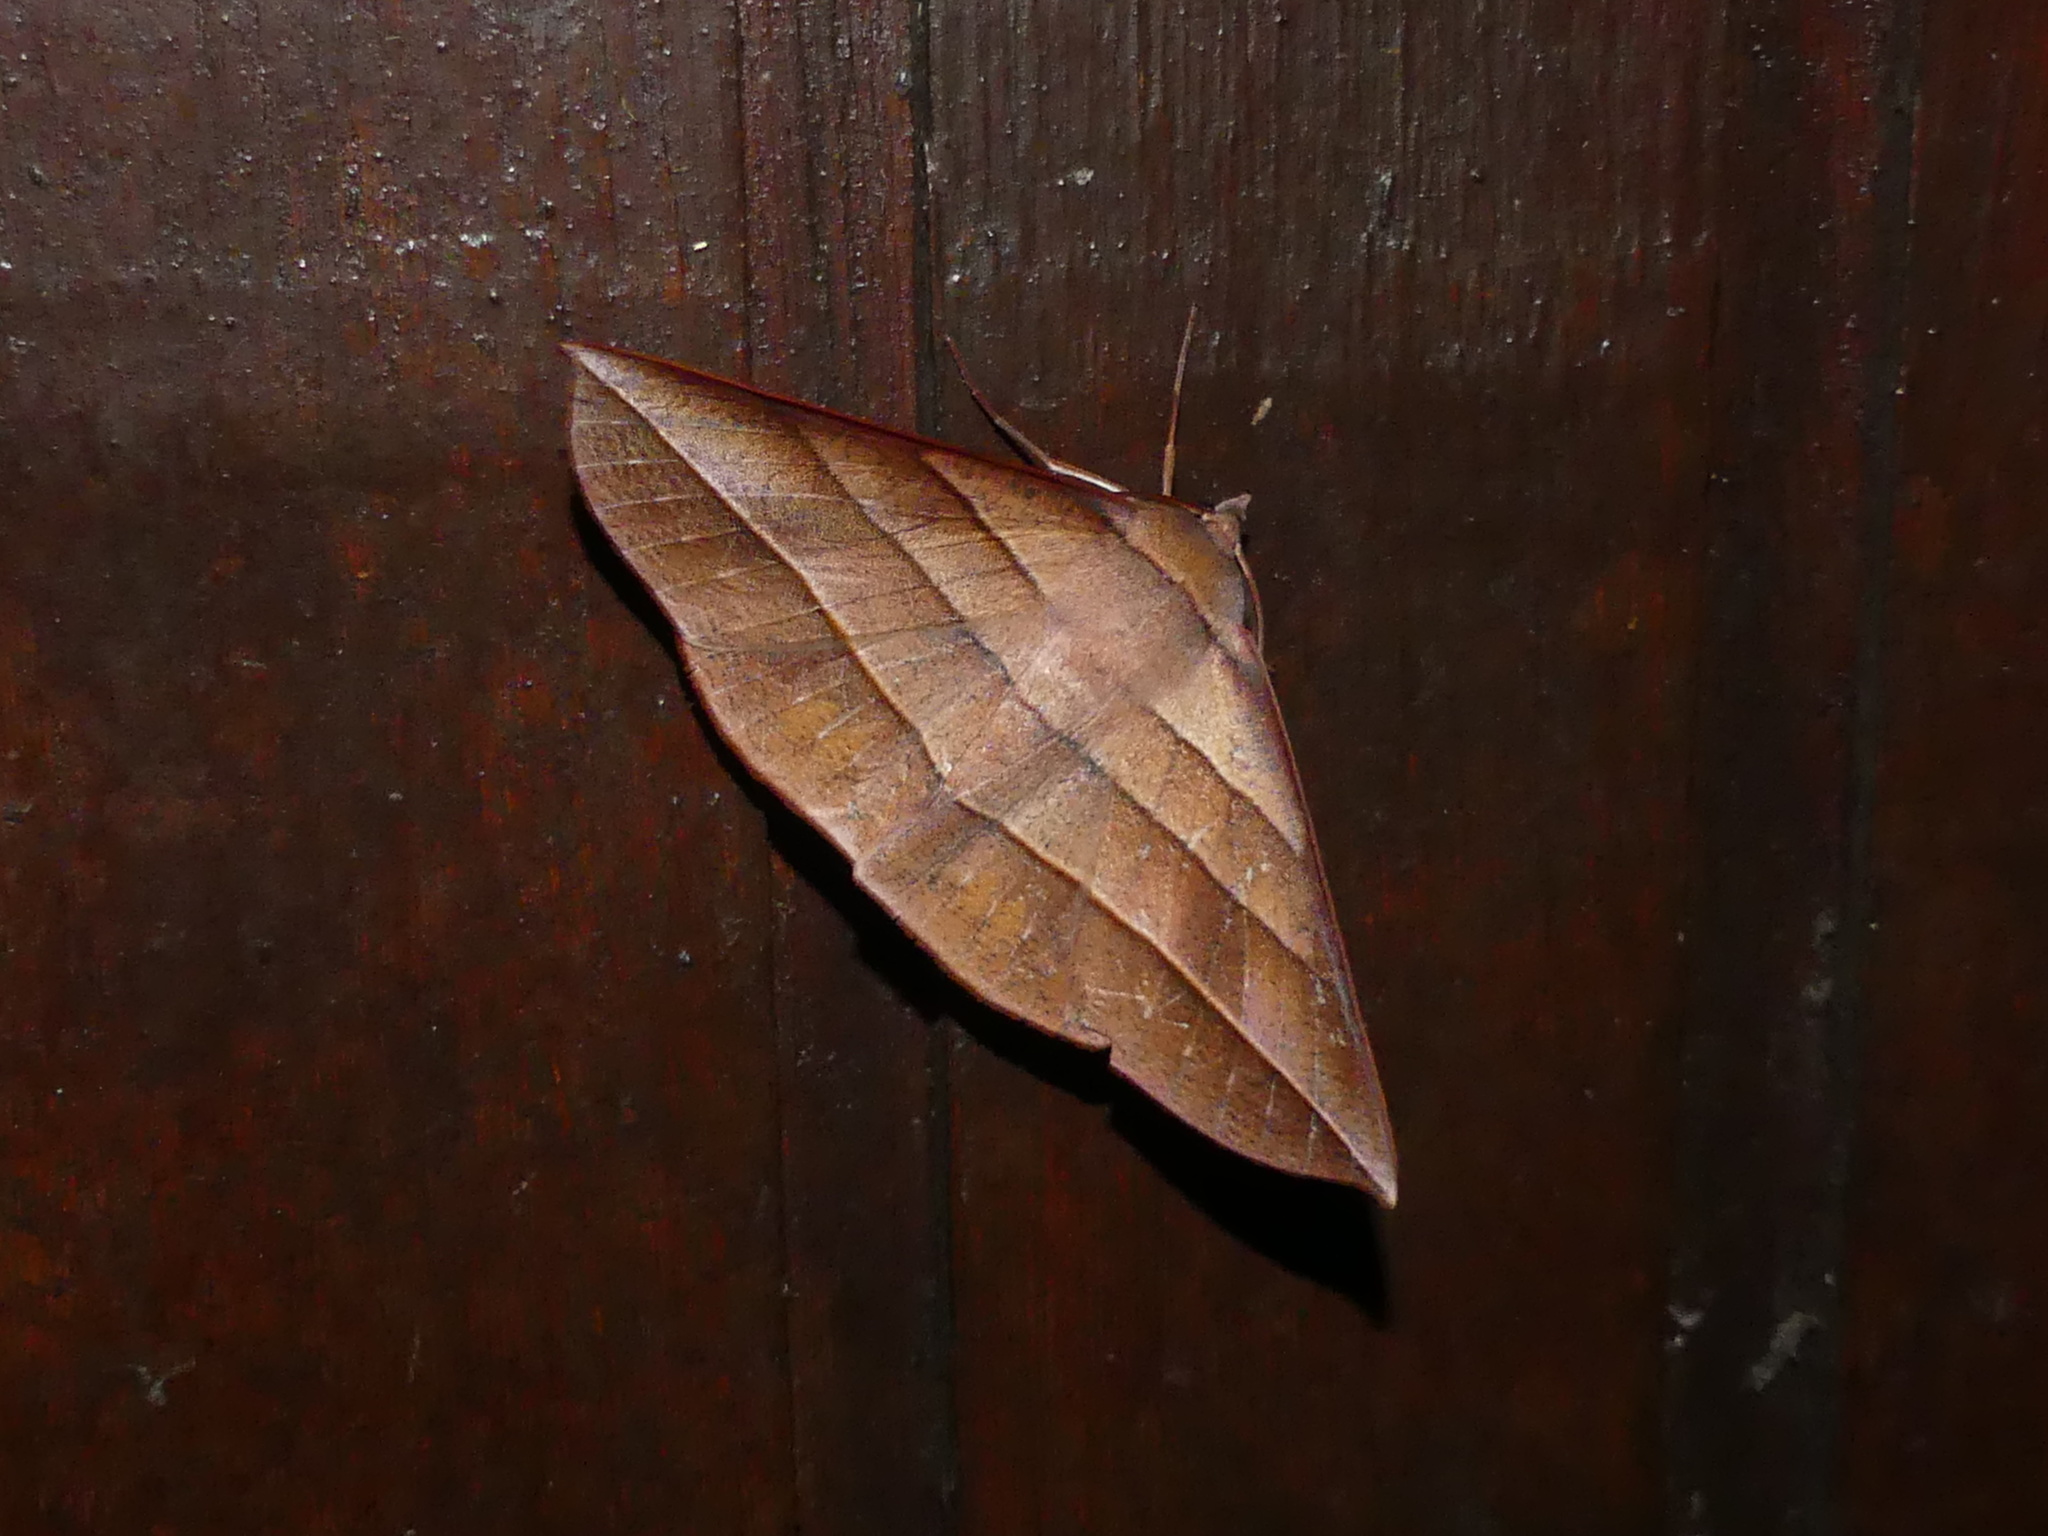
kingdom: Animalia
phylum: Arthropoda
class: Insecta
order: Lepidoptera
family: Geometridae
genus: Sarcinodes
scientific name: Sarcinodes reductatus
